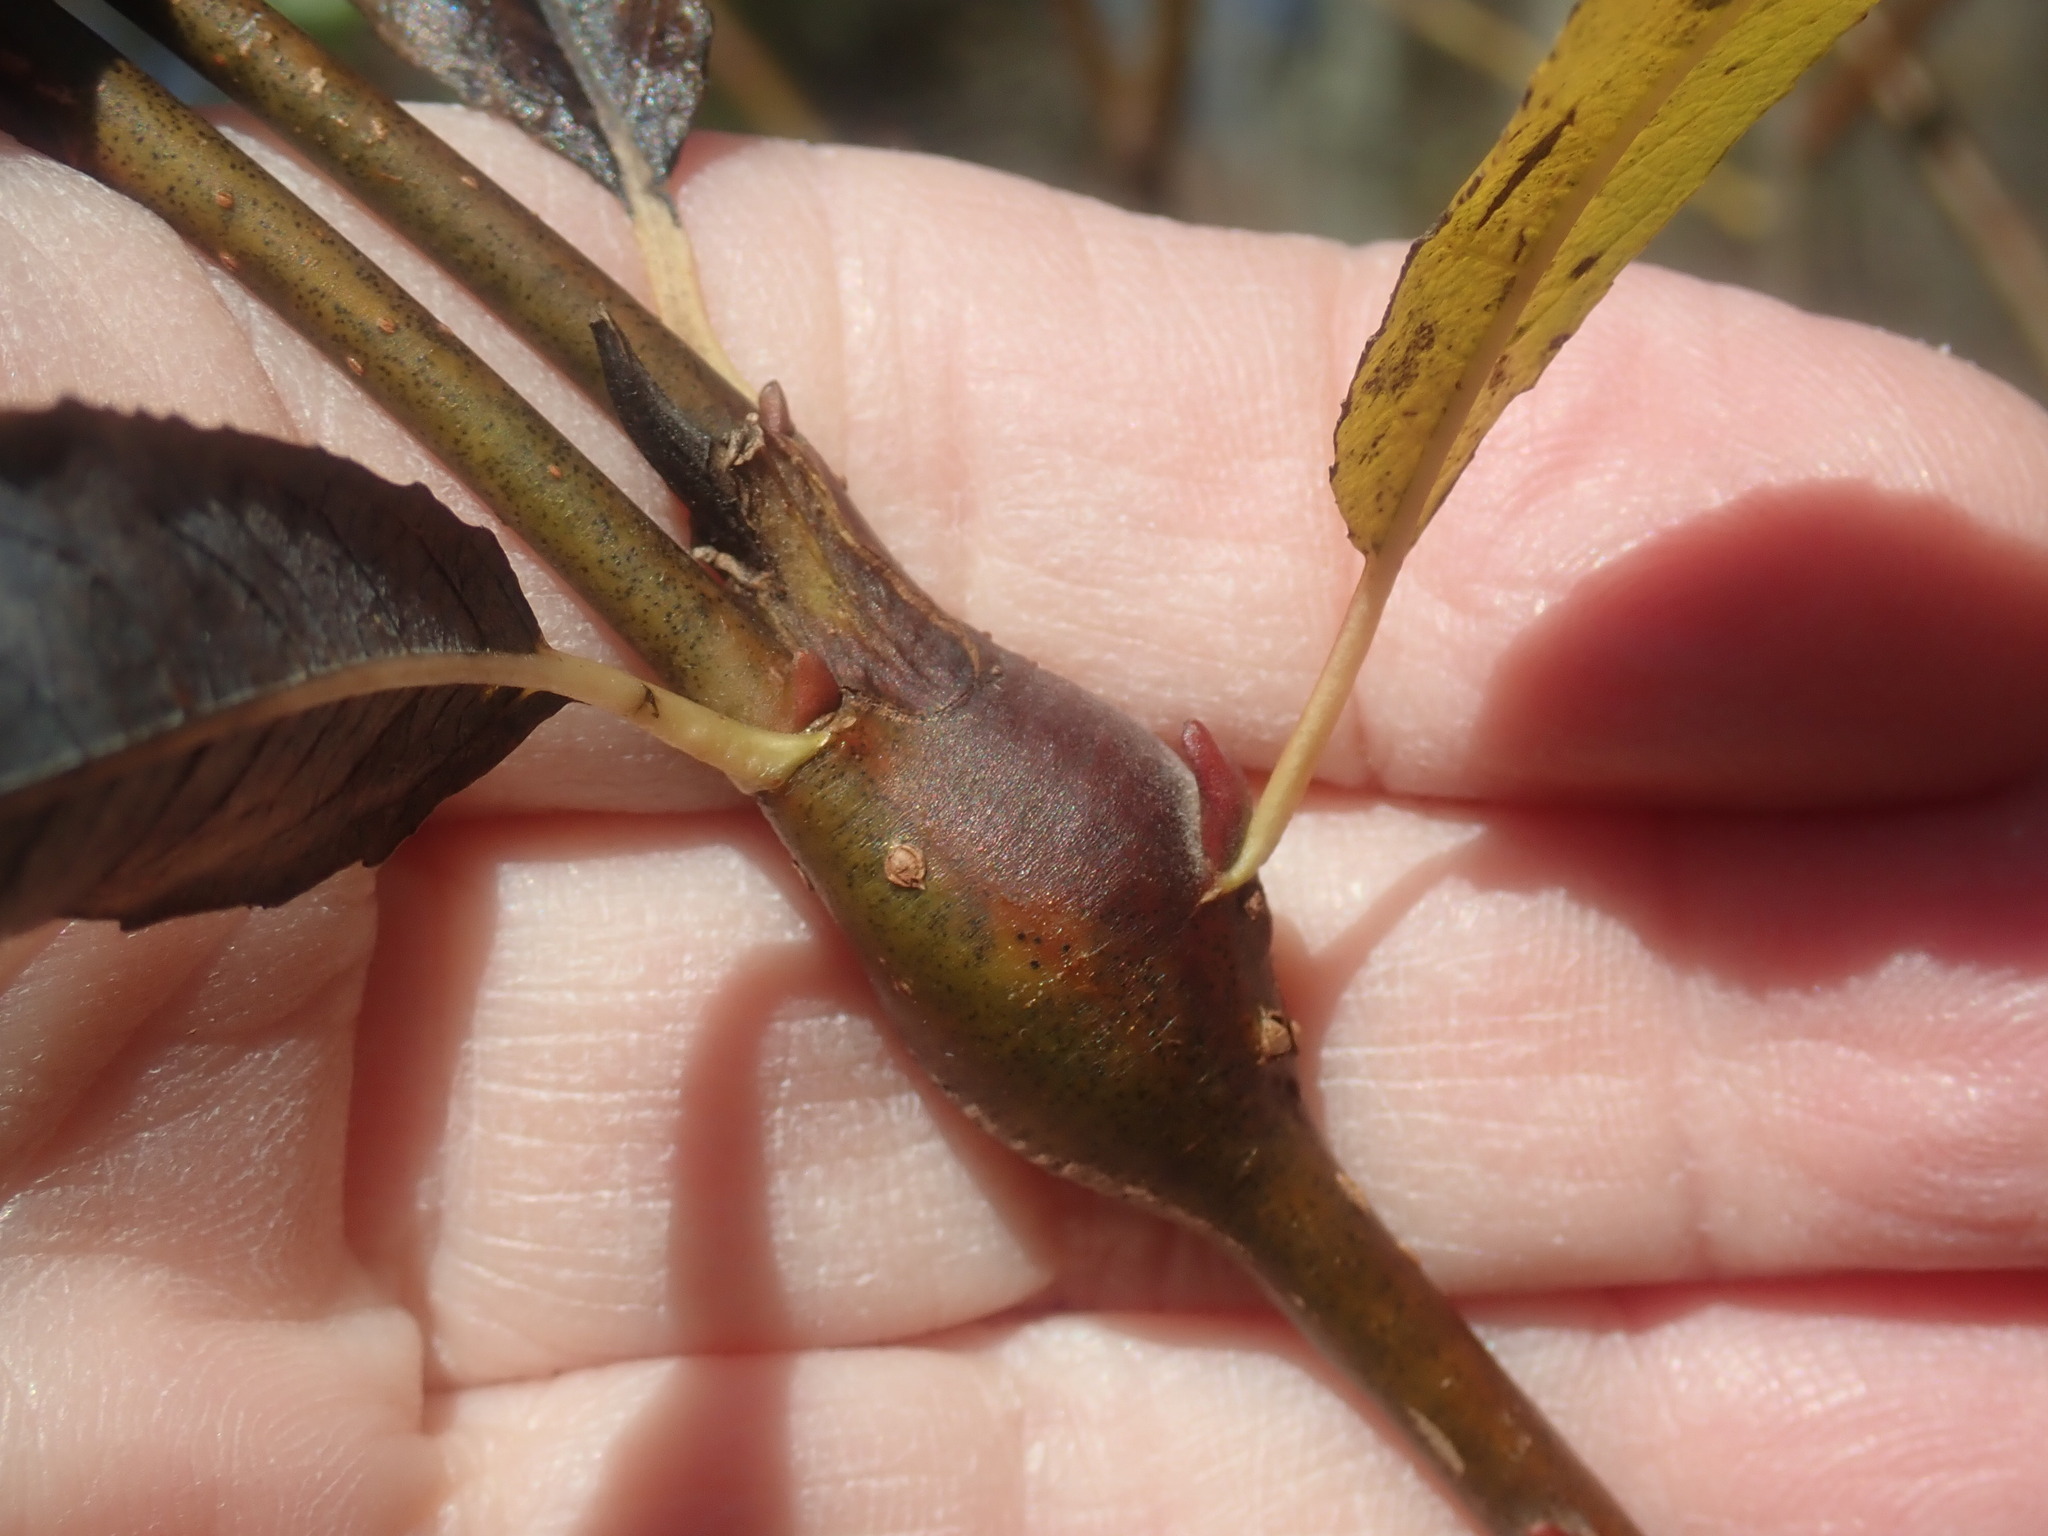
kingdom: Animalia
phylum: Arthropoda
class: Insecta
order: Diptera
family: Cecidomyiidae
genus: Thecodiplosis
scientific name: Thecodiplosis pinirigidae
